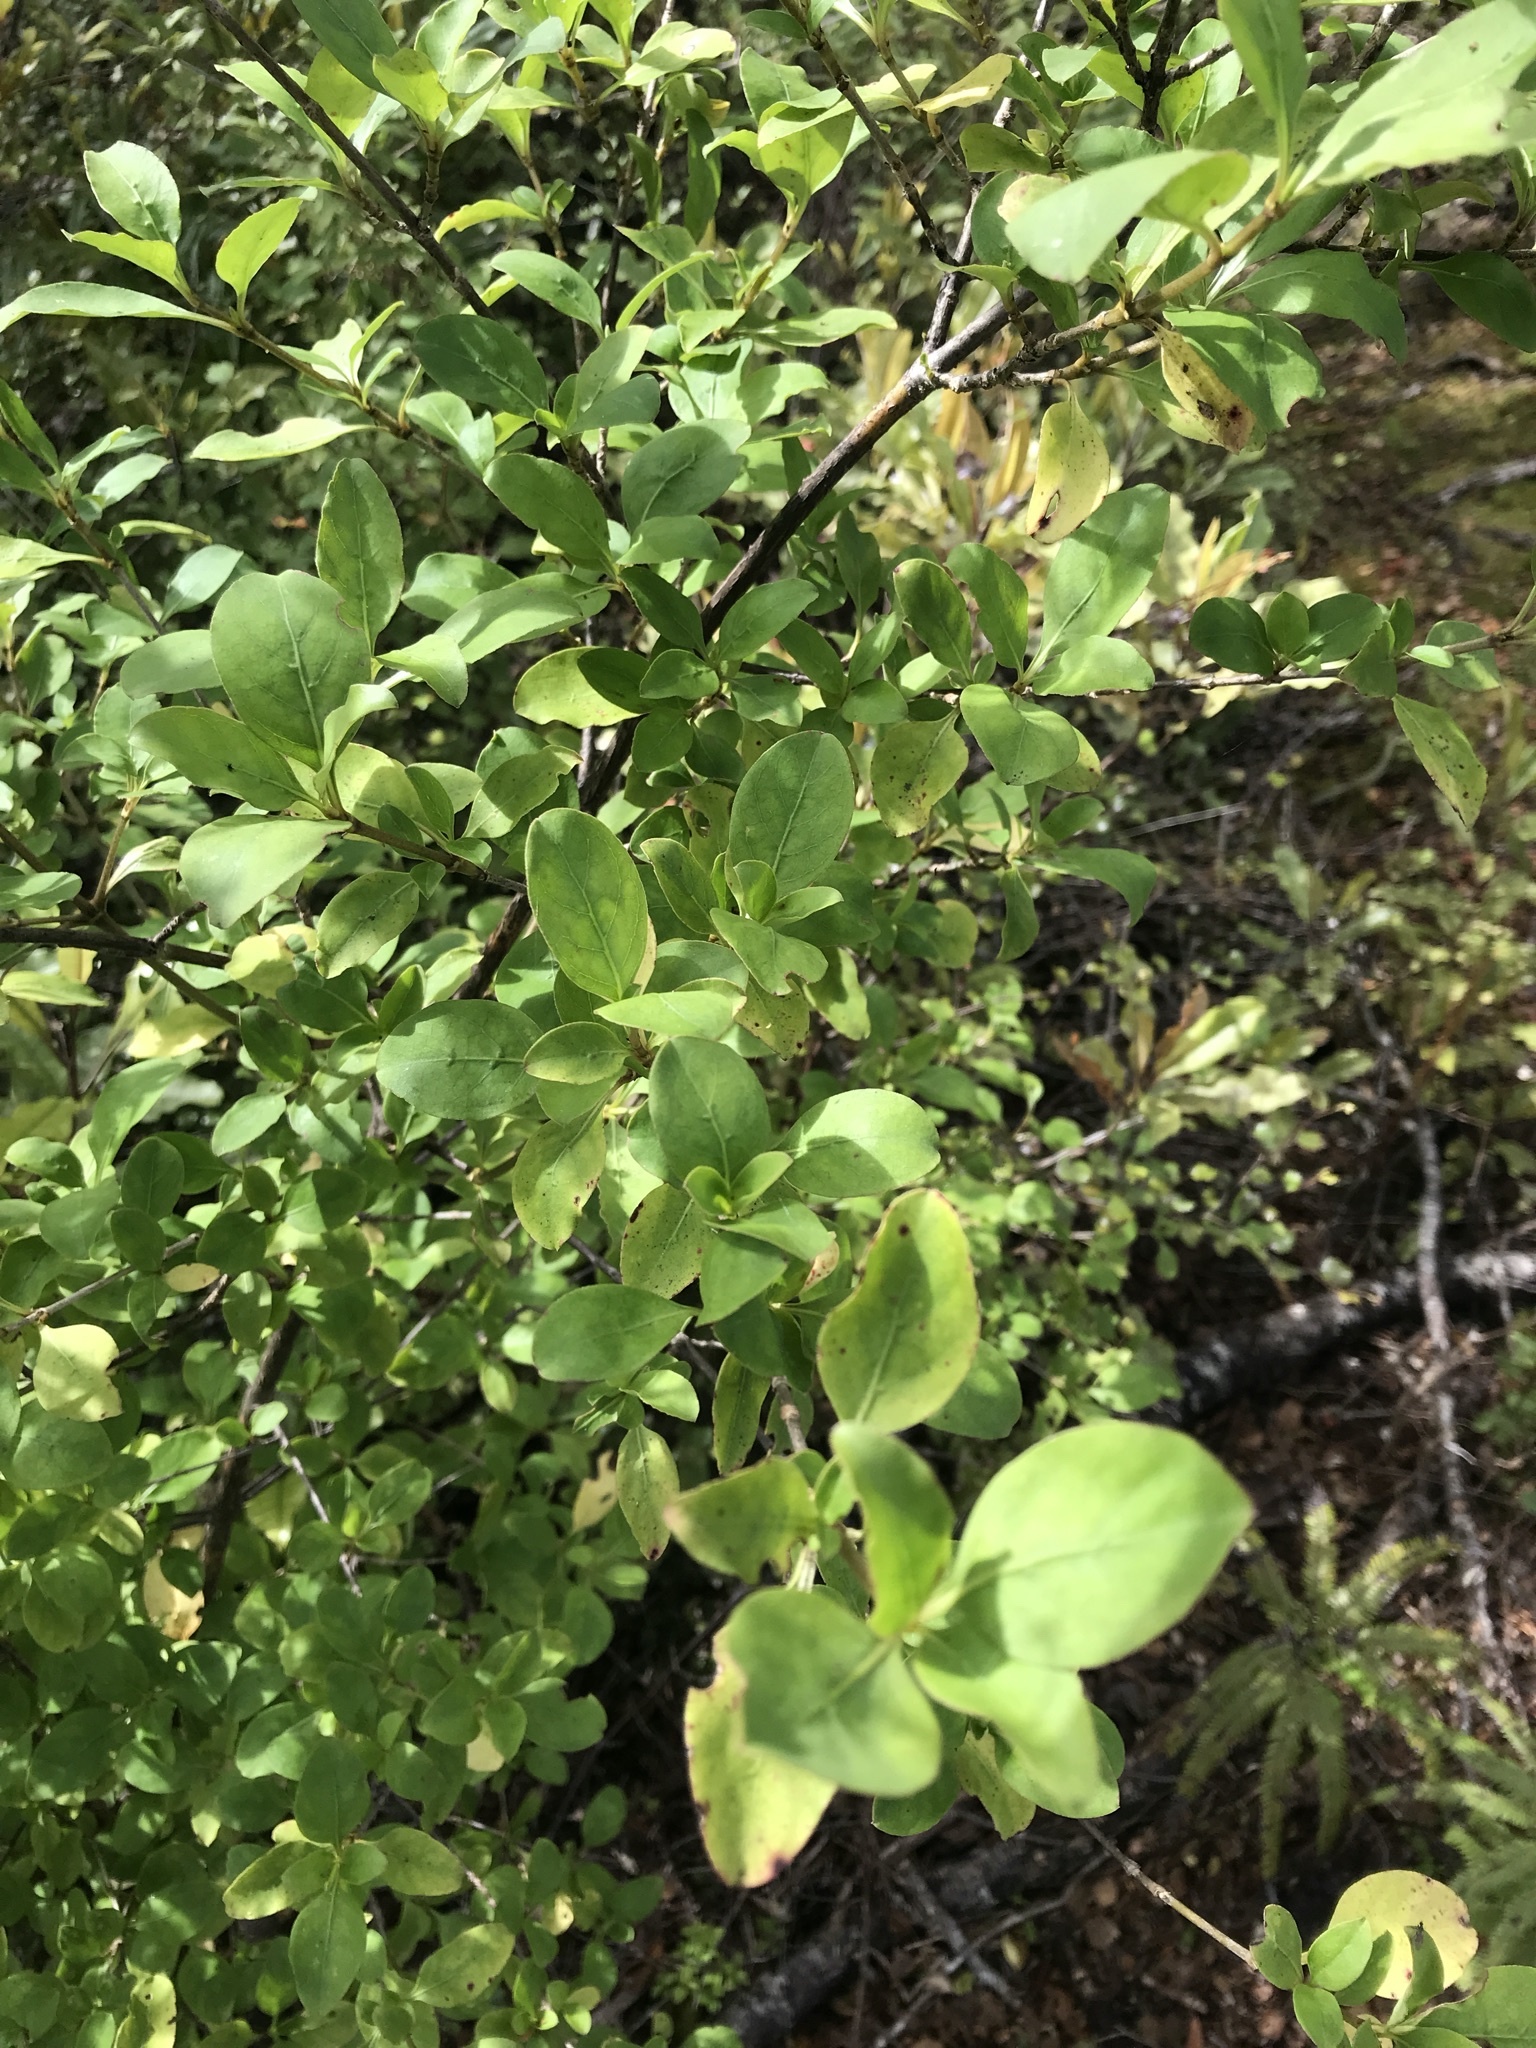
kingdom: Plantae
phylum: Tracheophyta
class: Magnoliopsida
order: Gentianales
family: Rubiaceae
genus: Coprosma
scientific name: Coprosma foetidissima
